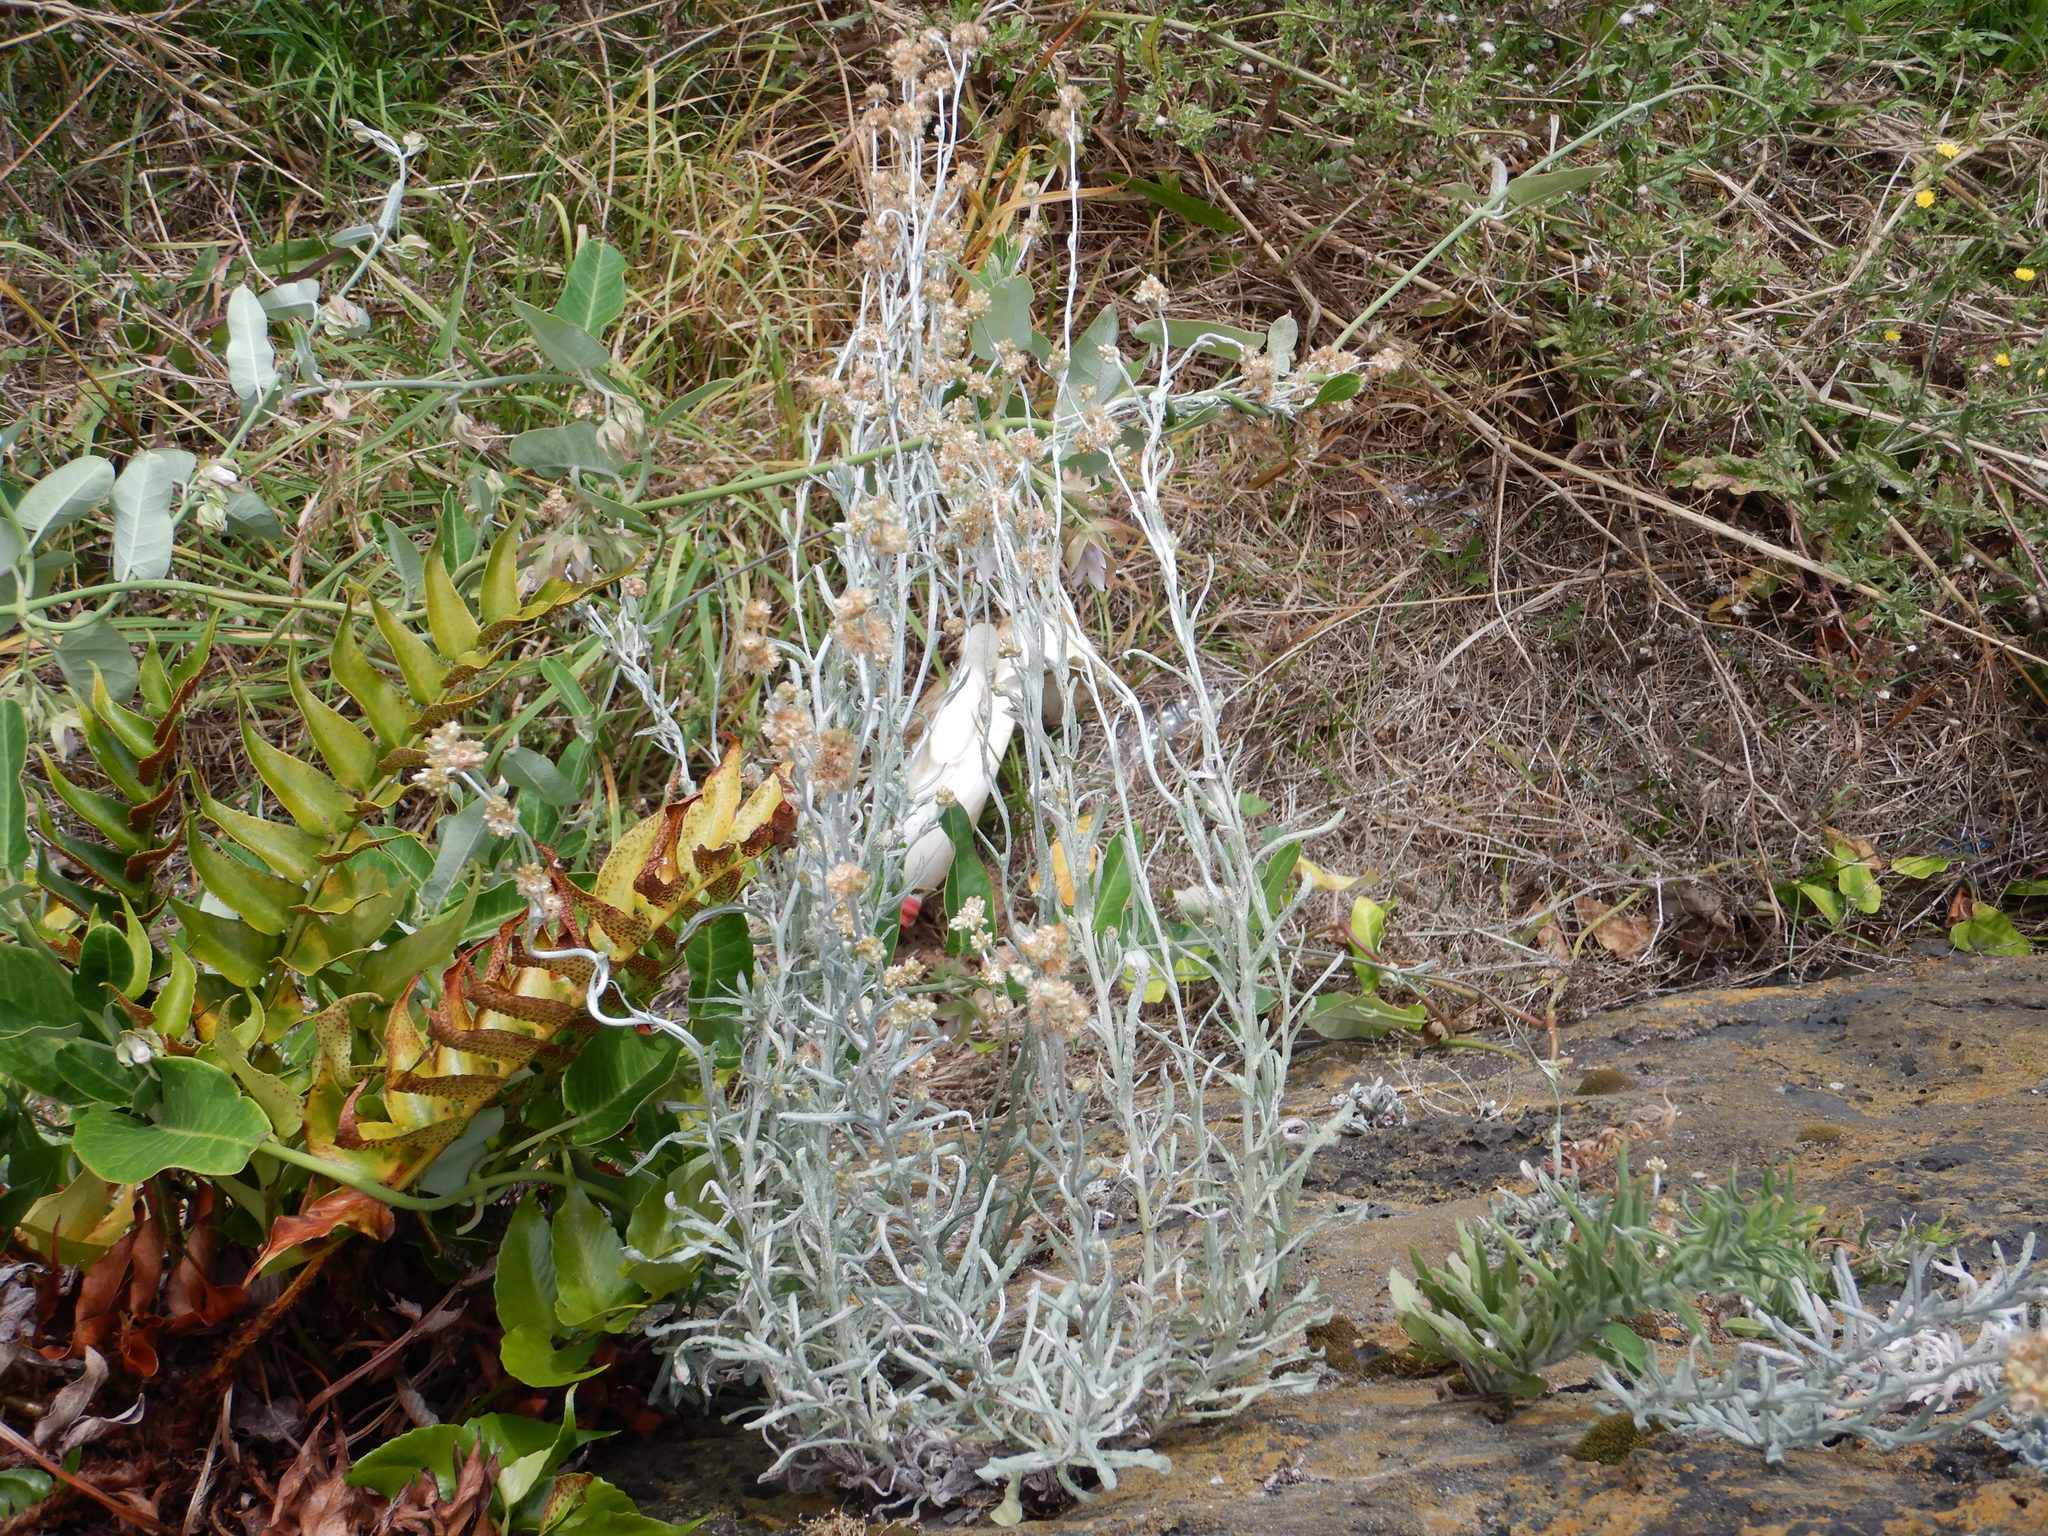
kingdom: Plantae
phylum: Tracheophyta
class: Magnoliopsida
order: Asterales
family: Asteraceae
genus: Helichrysum
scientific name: Helichrysum luteoalbum
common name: Daisy
